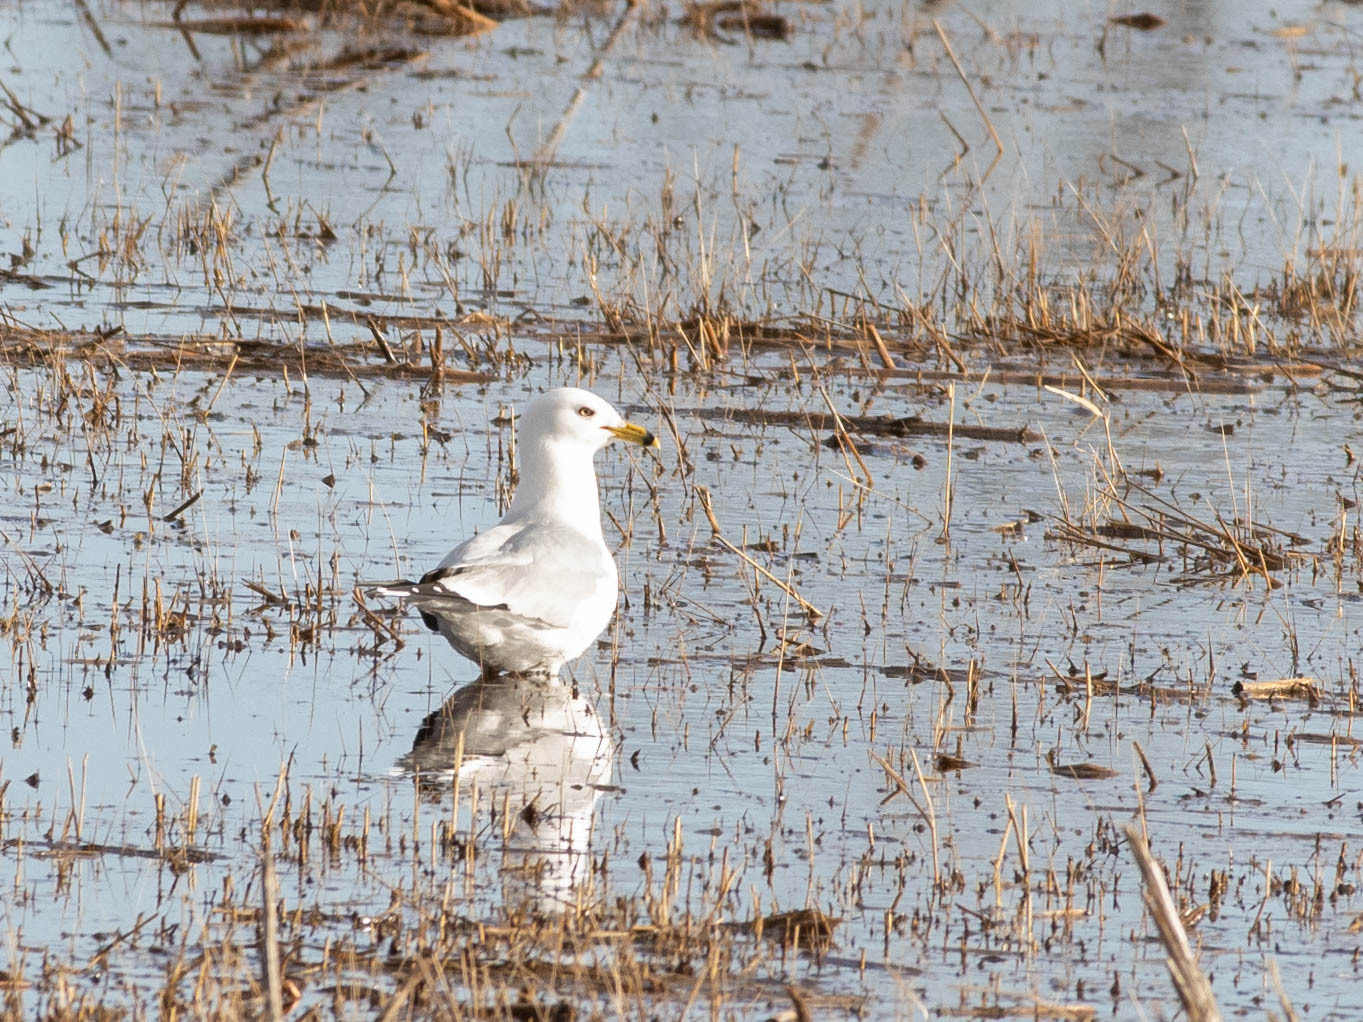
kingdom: Animalia
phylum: Chordata
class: Aves
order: Charadriiformes
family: Laridae
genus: Larus
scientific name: Larus delawarensis
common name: Ring-billed gull
